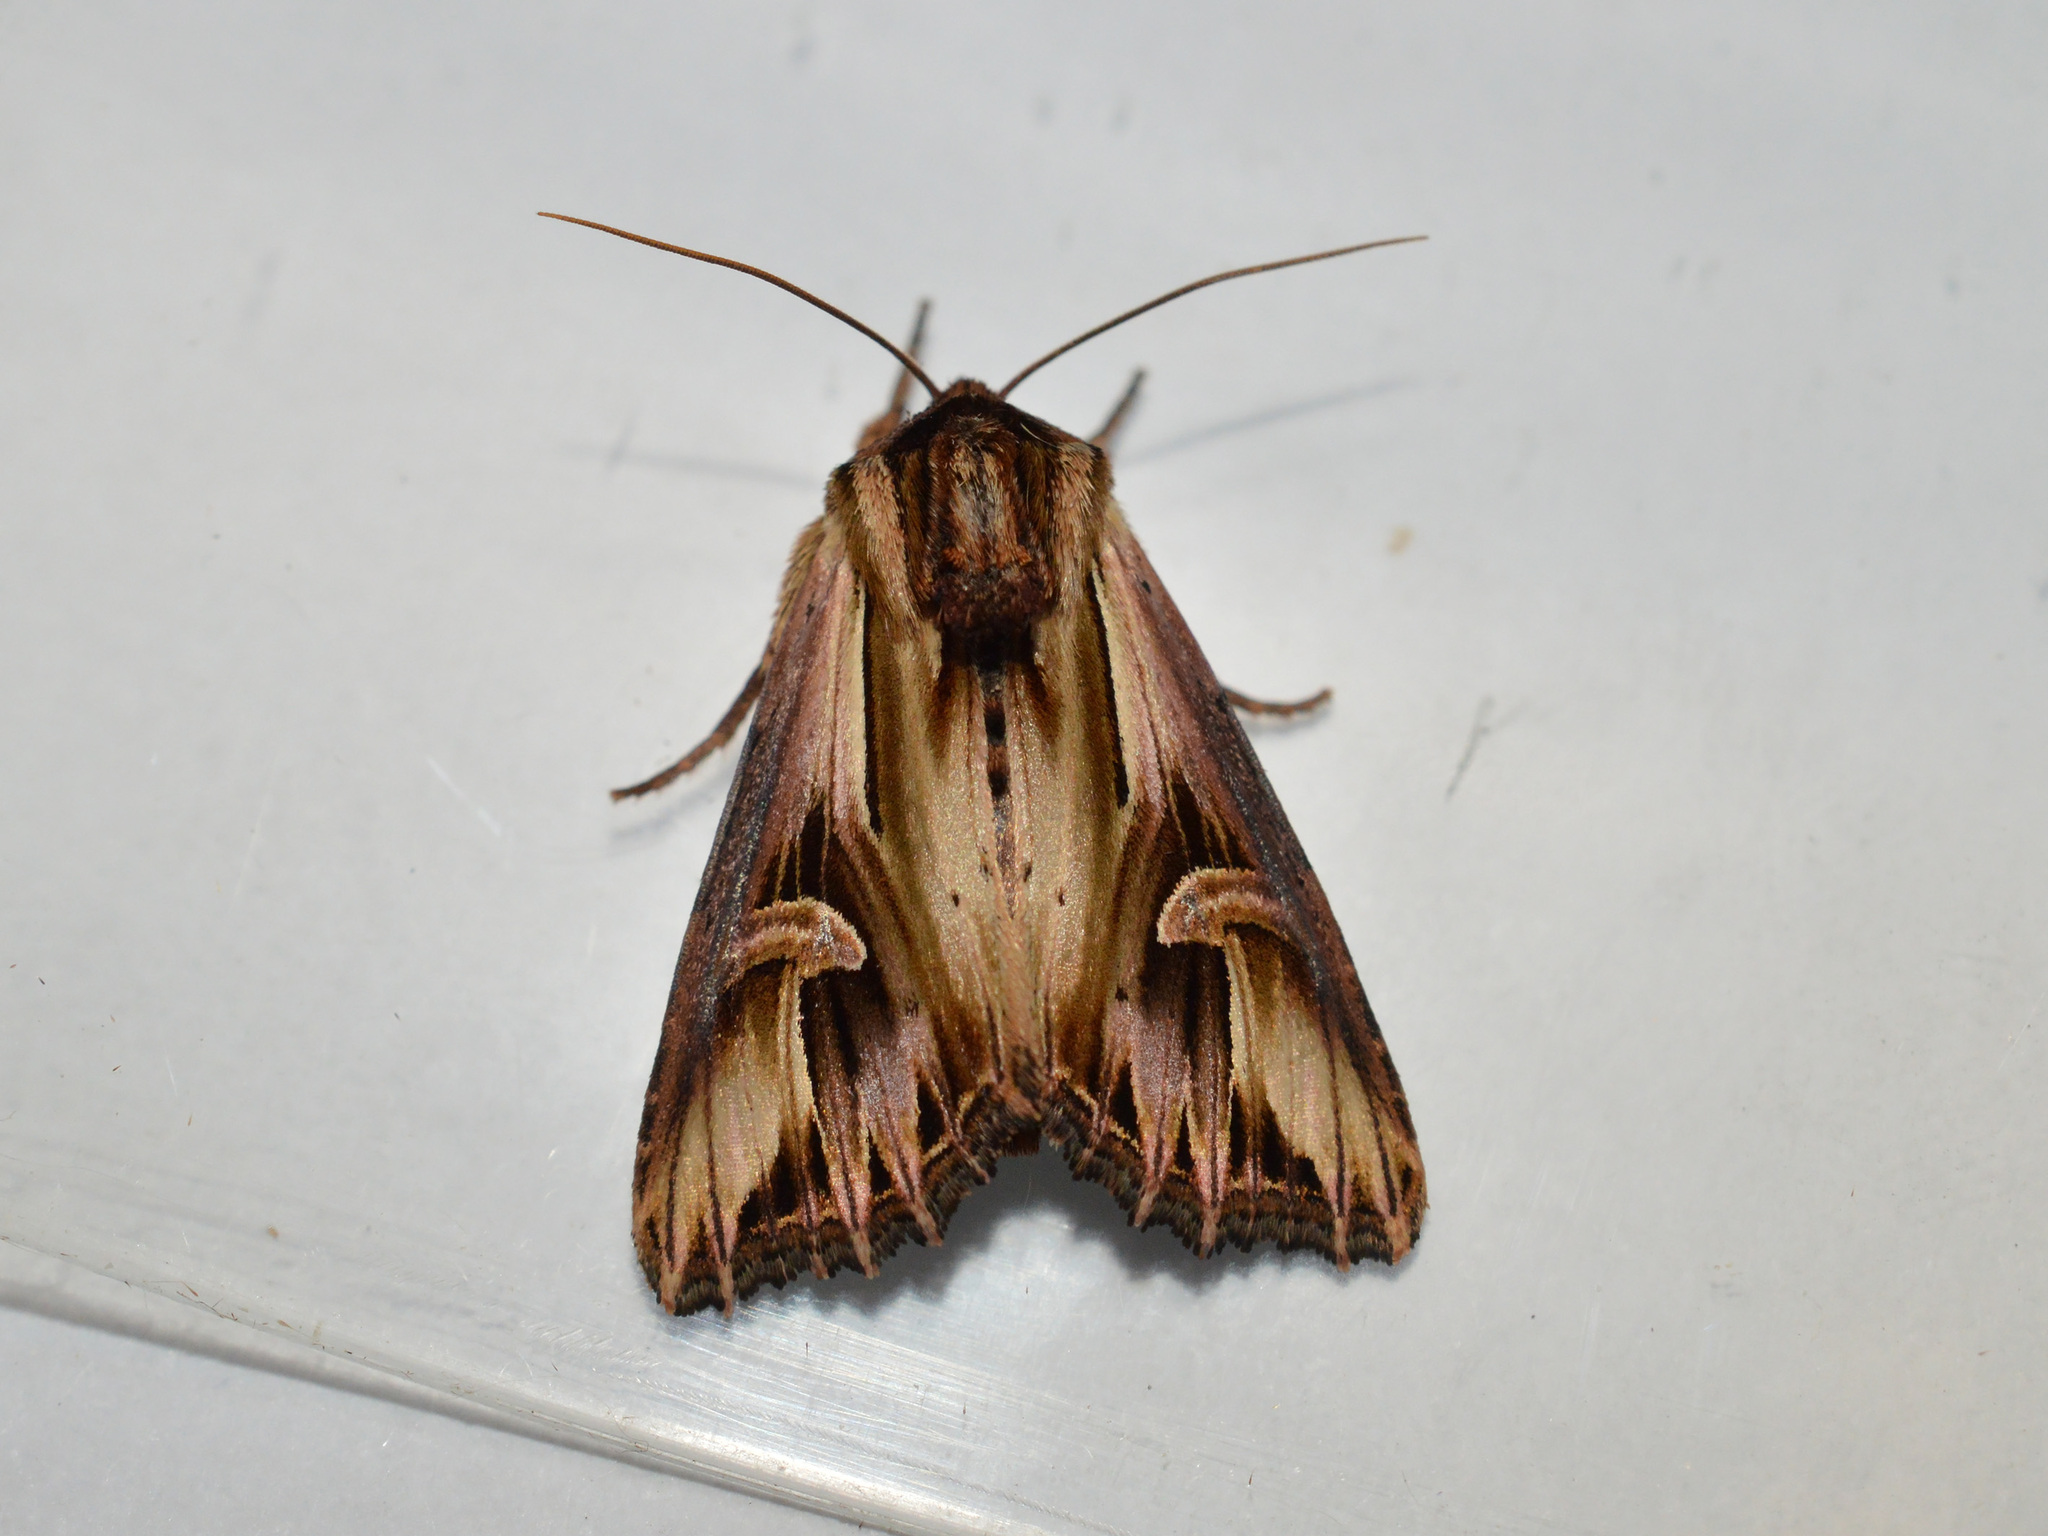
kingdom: Animalia
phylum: Arthropoda
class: Insecta
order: Lepidoptera
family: Noctuidae
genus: Actinotia
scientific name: Actinotia polyodon
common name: Purple cloud
